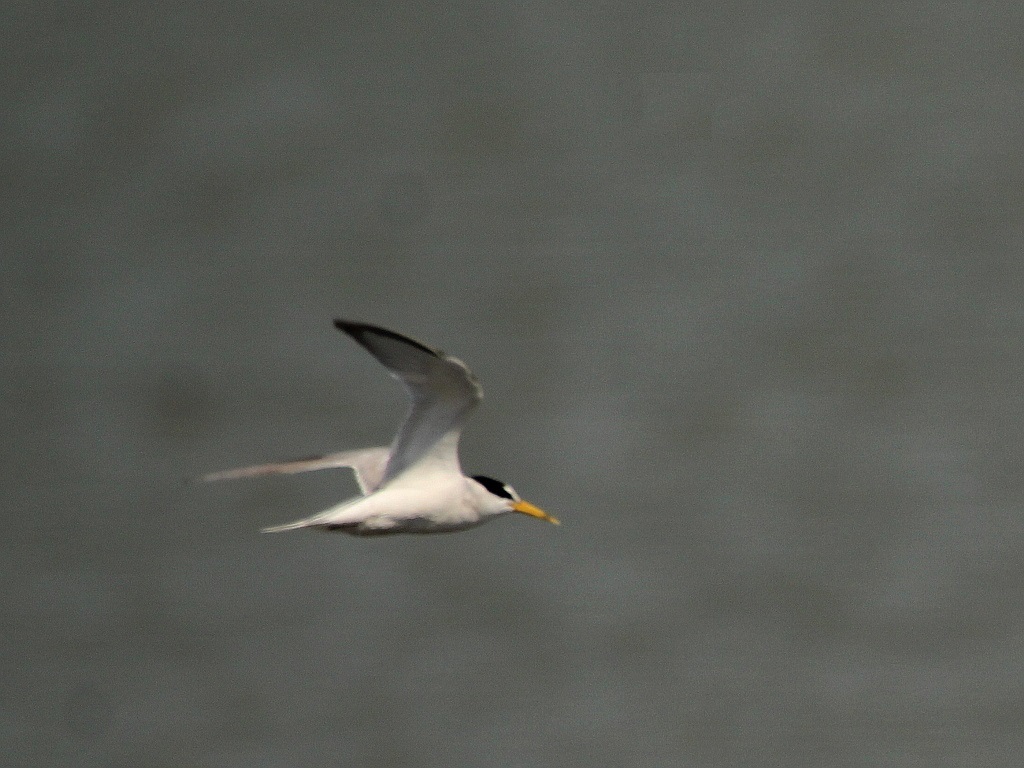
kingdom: Animalia
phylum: Chordata
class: Aves
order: Charadriiformes
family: Laridae
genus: Sternula
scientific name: Sternula albifrons
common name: Little tern
